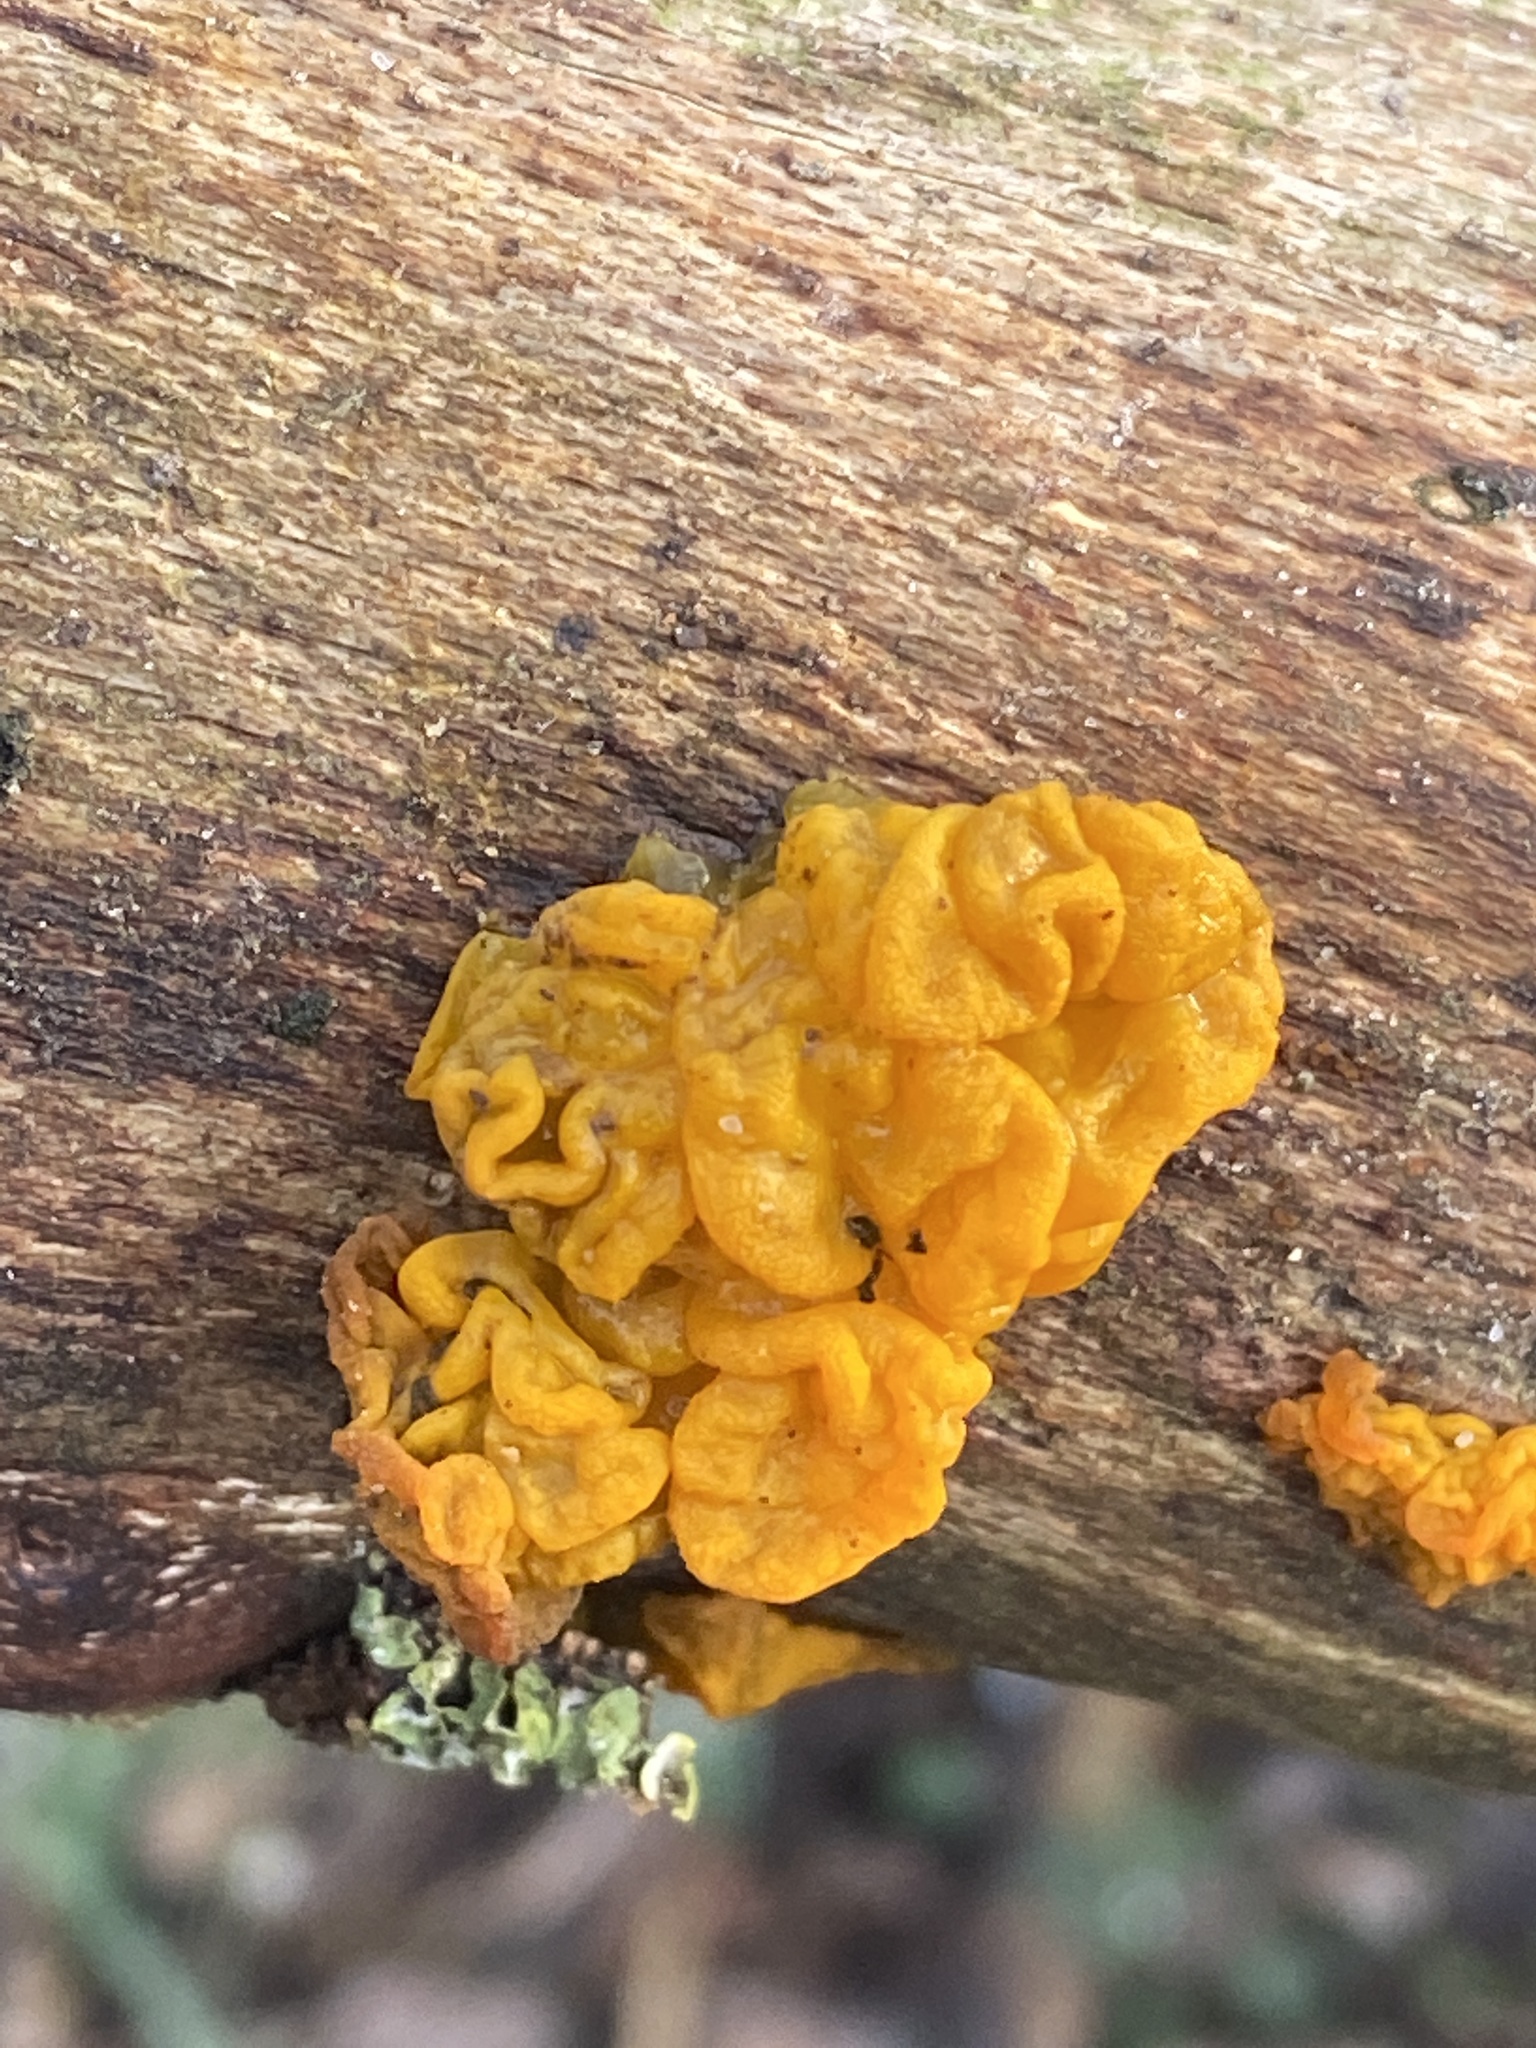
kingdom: Fungi
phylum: Basidiomycota
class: Tremellomycetes
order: Tremellales
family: Tremellaceae
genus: Tremella
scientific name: Tremella mesenterica
